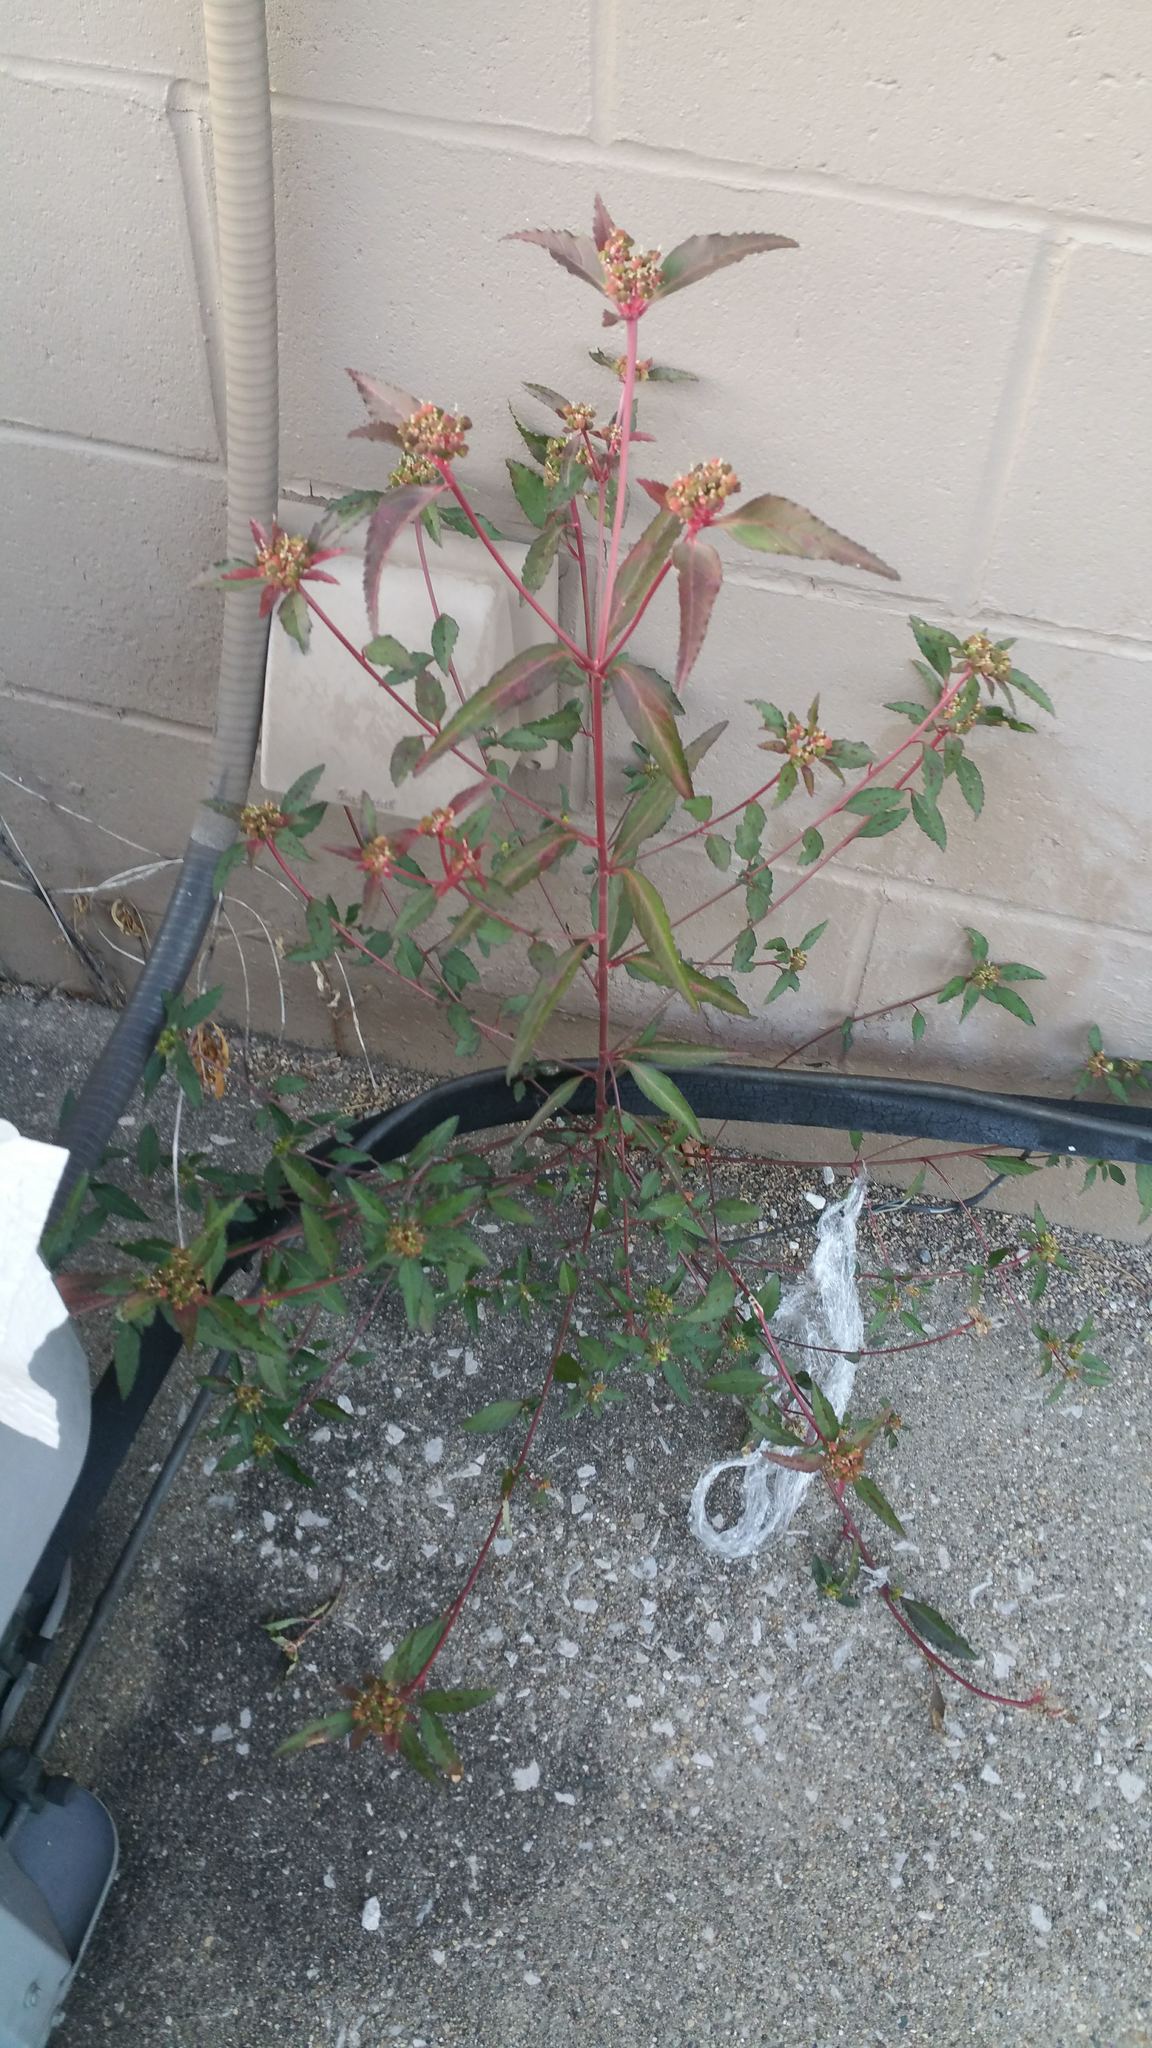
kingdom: Plantae
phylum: Tracheophyta
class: Magnoliopsida
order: Malpighiales
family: Euphorbiaceae
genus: Euphorbia
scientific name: Euphorbia dentata
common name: Dentate spurge
